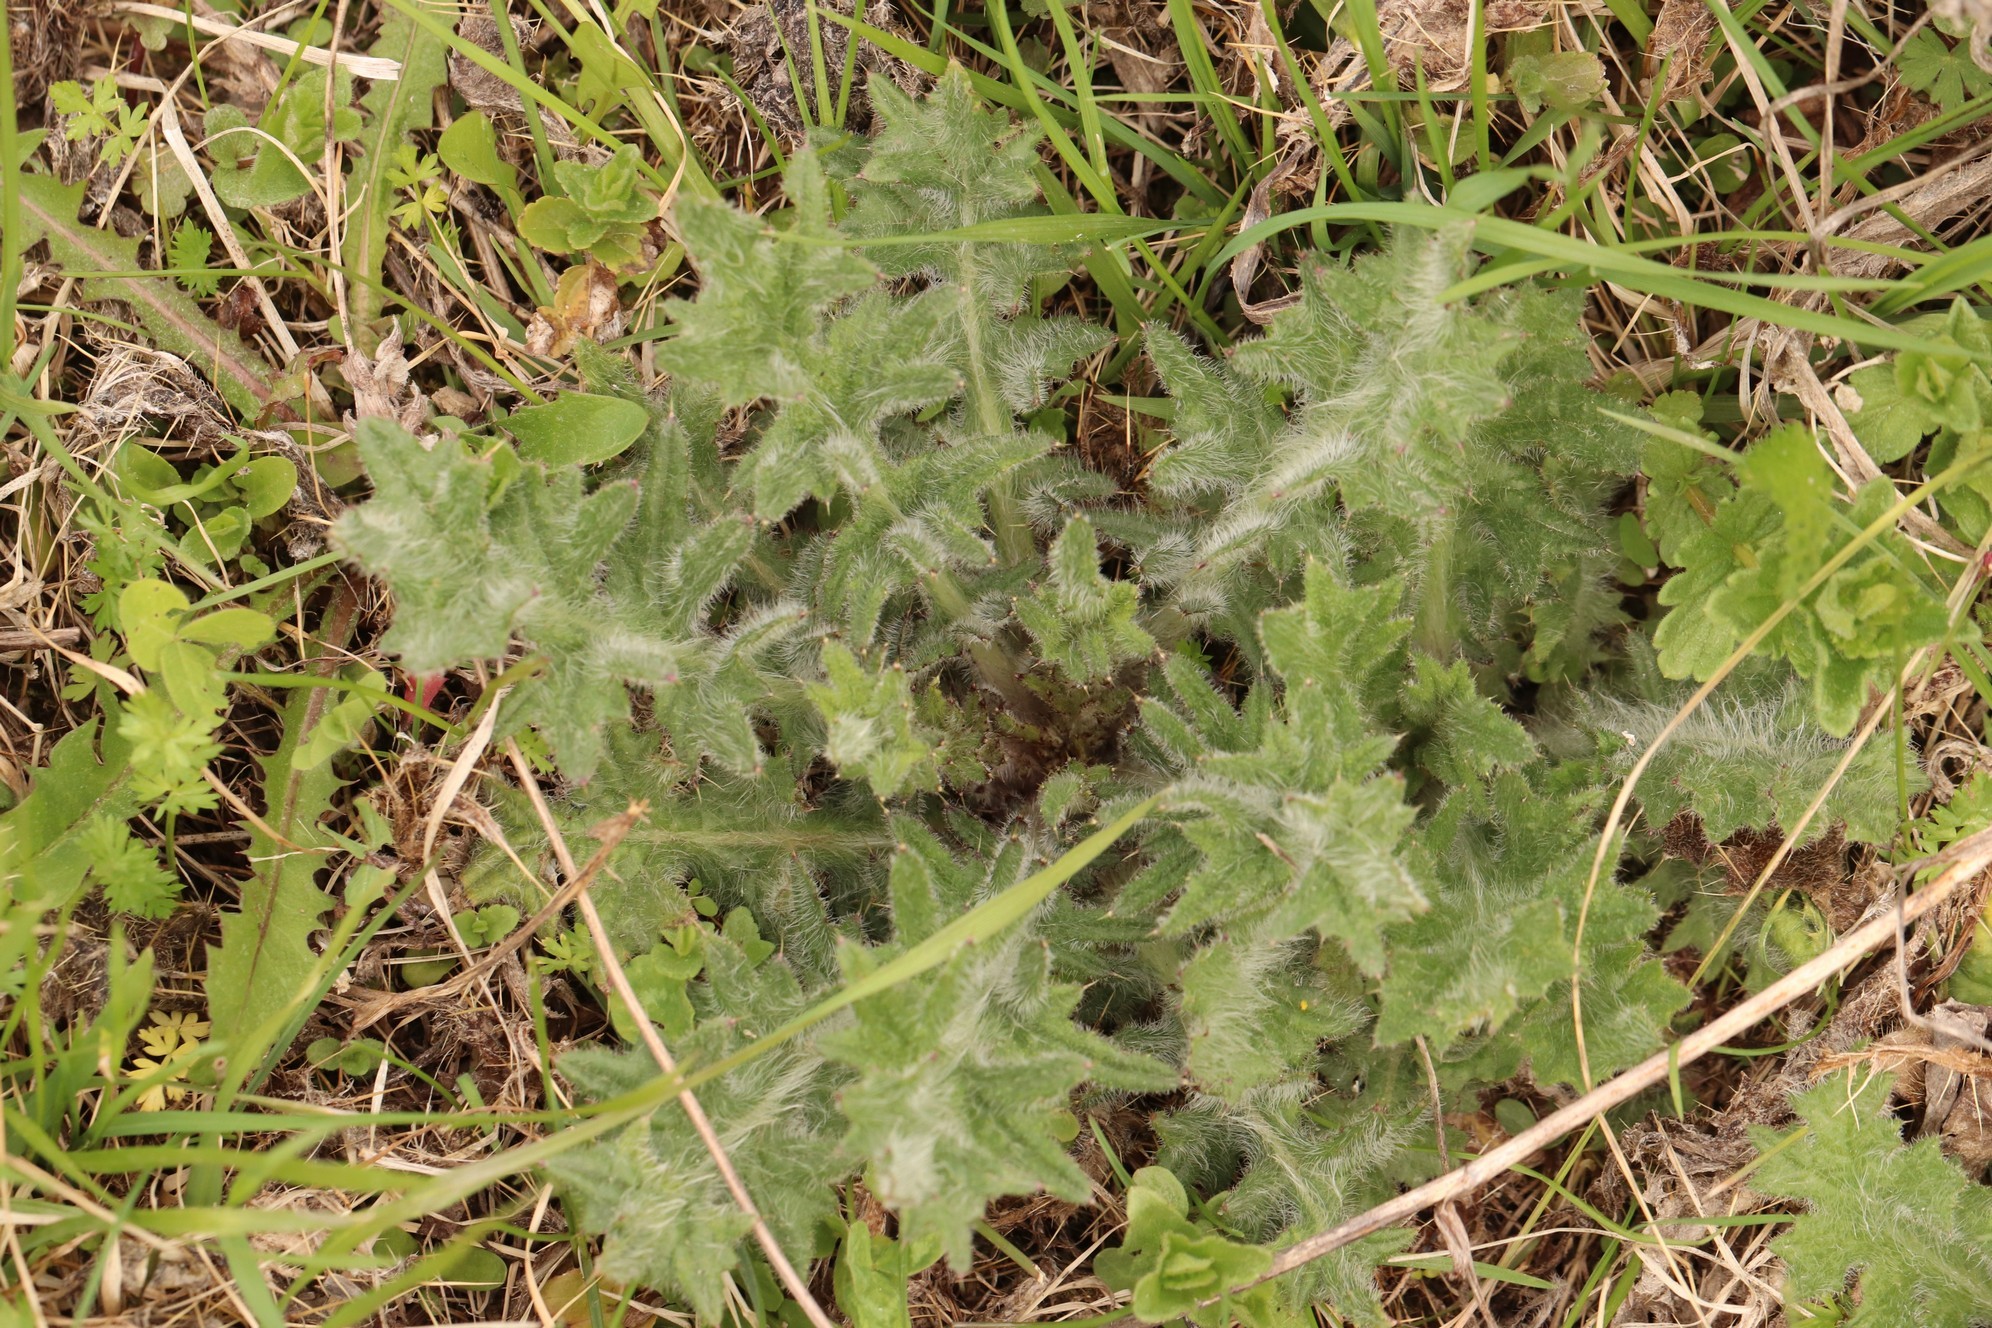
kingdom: Plantae
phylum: Tracheophyta
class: Magnoliopsida
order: Asterales
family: Asteraceae
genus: Cirsium
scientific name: Cirsium vulgare
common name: Bull thistle
